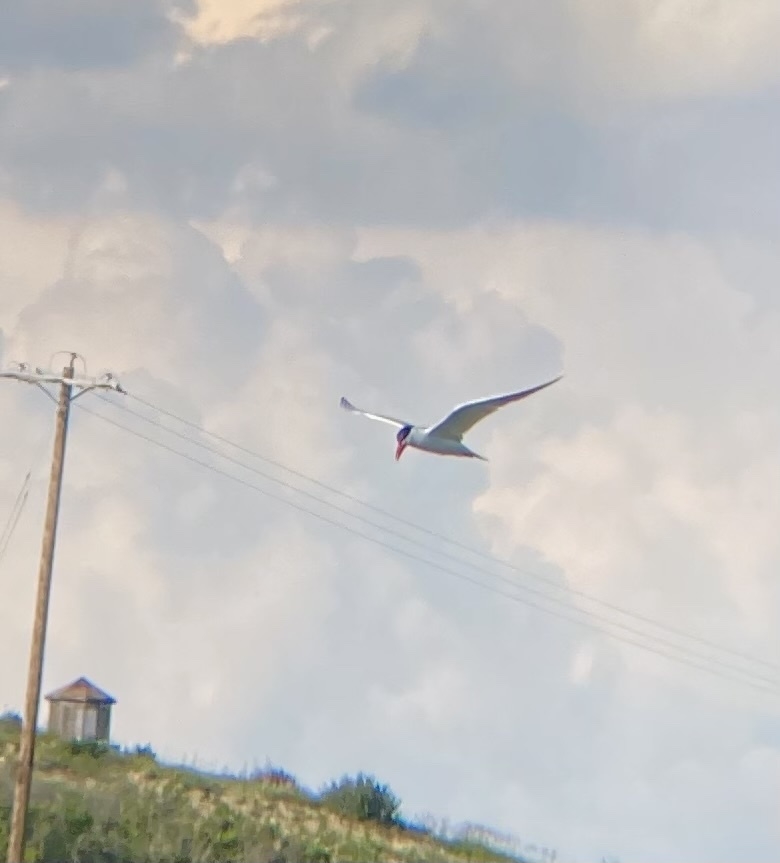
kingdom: Animalia
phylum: Chordata
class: Aves
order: Charadriiformes
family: Laridae
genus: Hydroprogne
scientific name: Hydroprogne caspia
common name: Caspian tern
